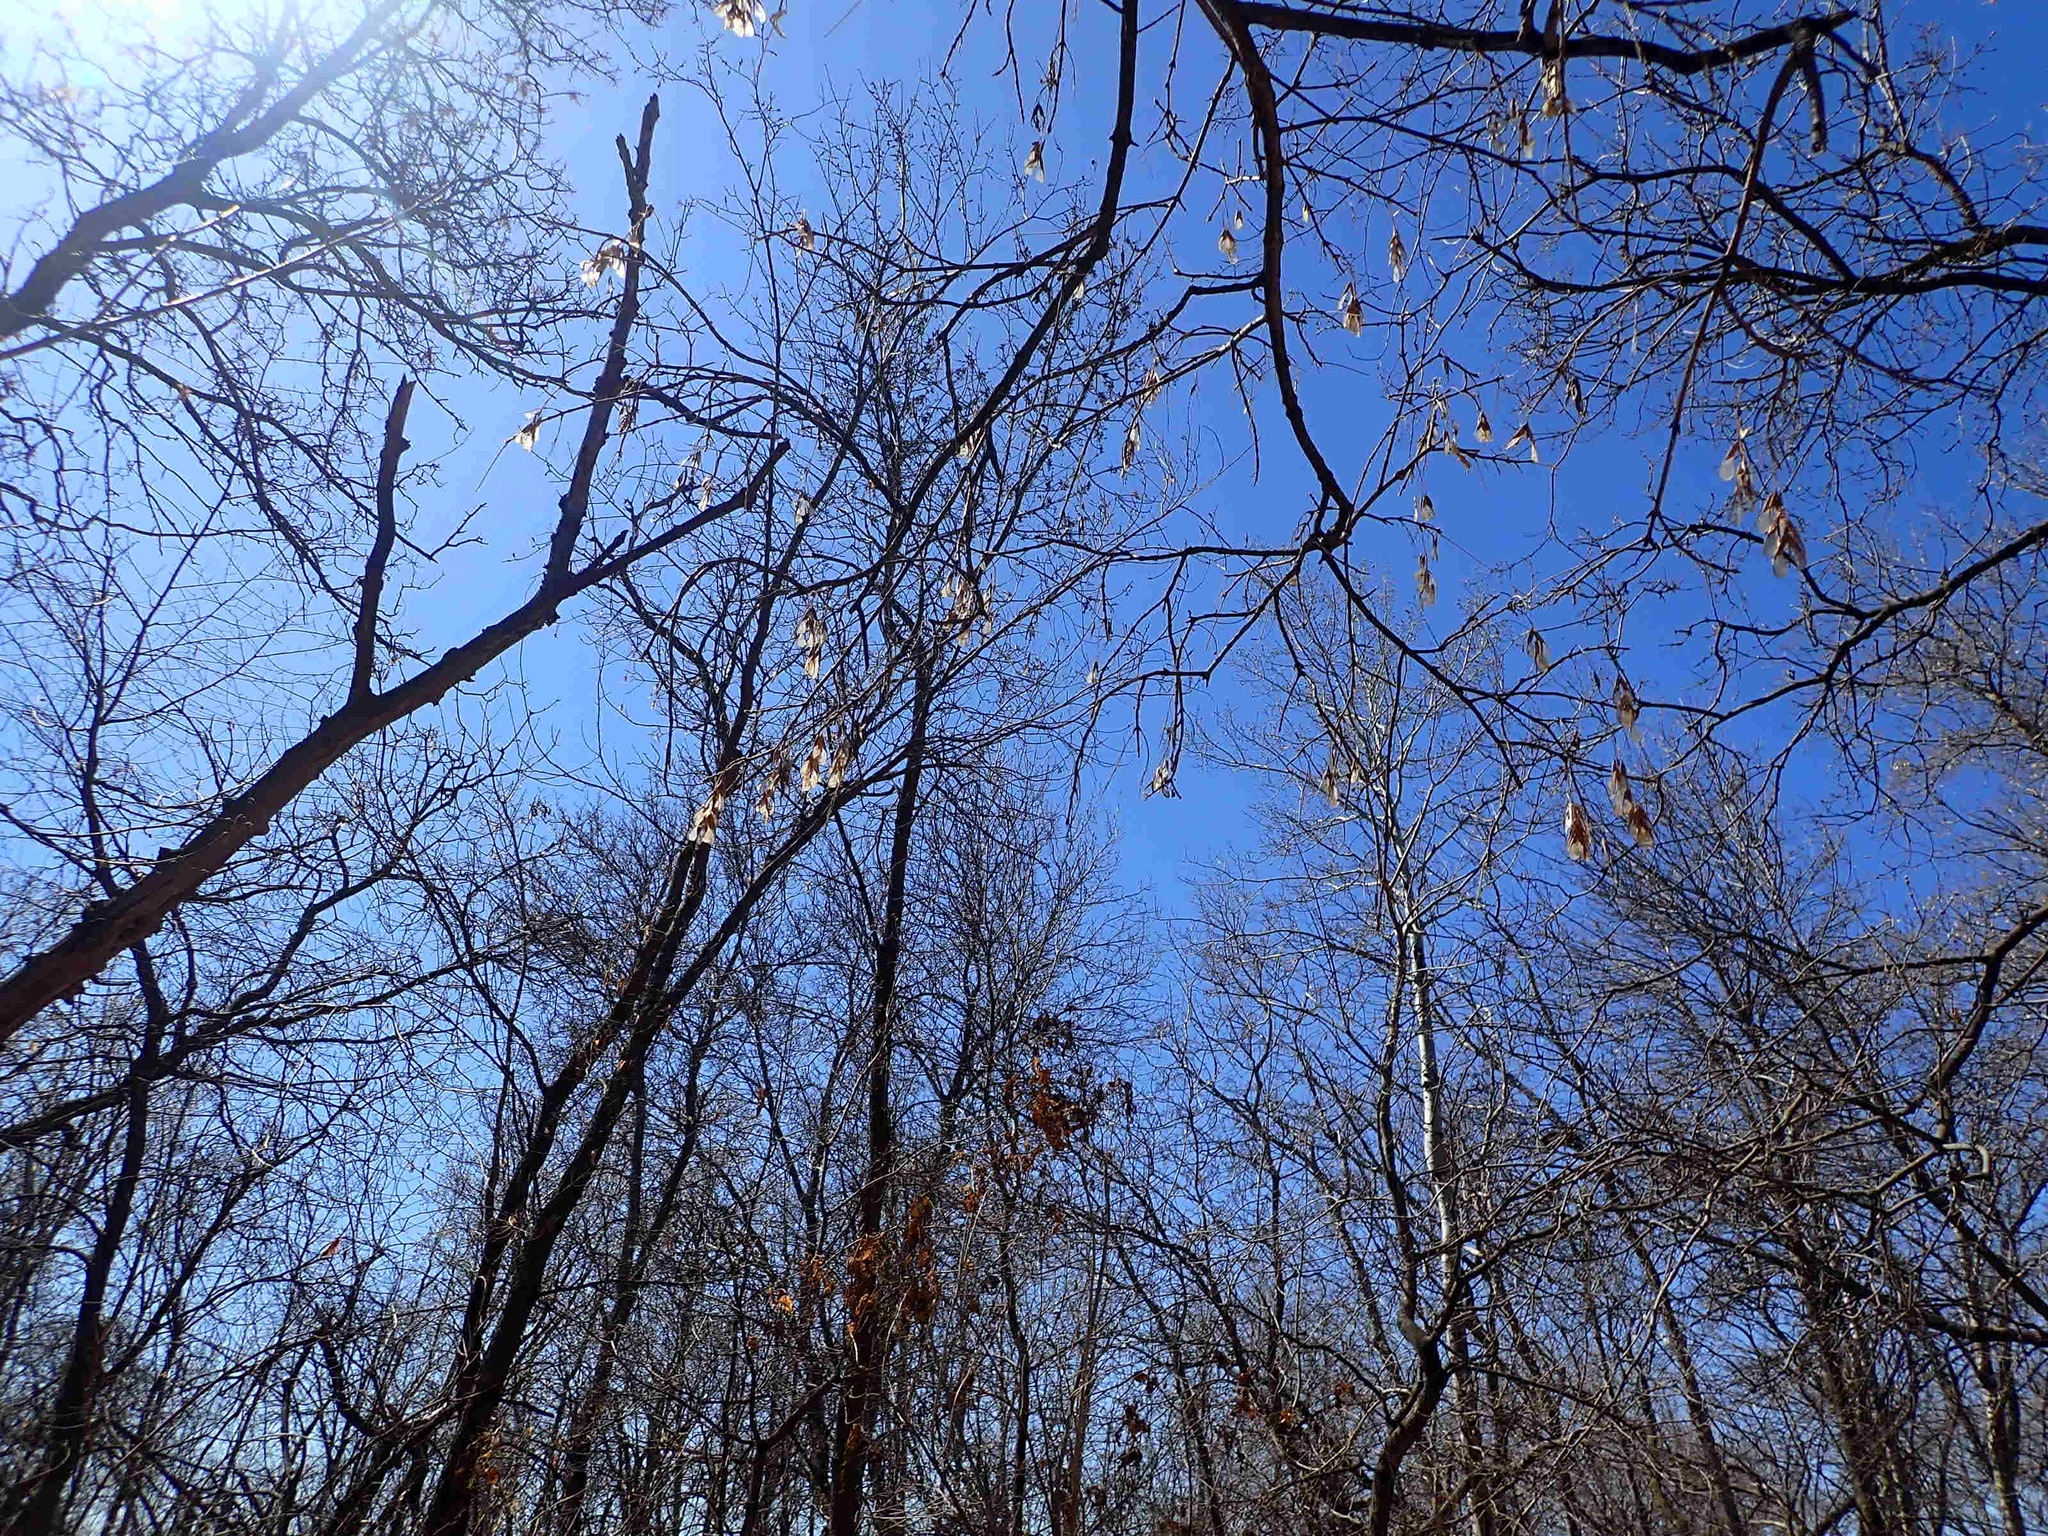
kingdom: Plantae
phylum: Tracheophyta
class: Magnoliopsida
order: Sapindales
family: Sapindaceae
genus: Acer
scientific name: Acer negundo
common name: Ashleaf maple
